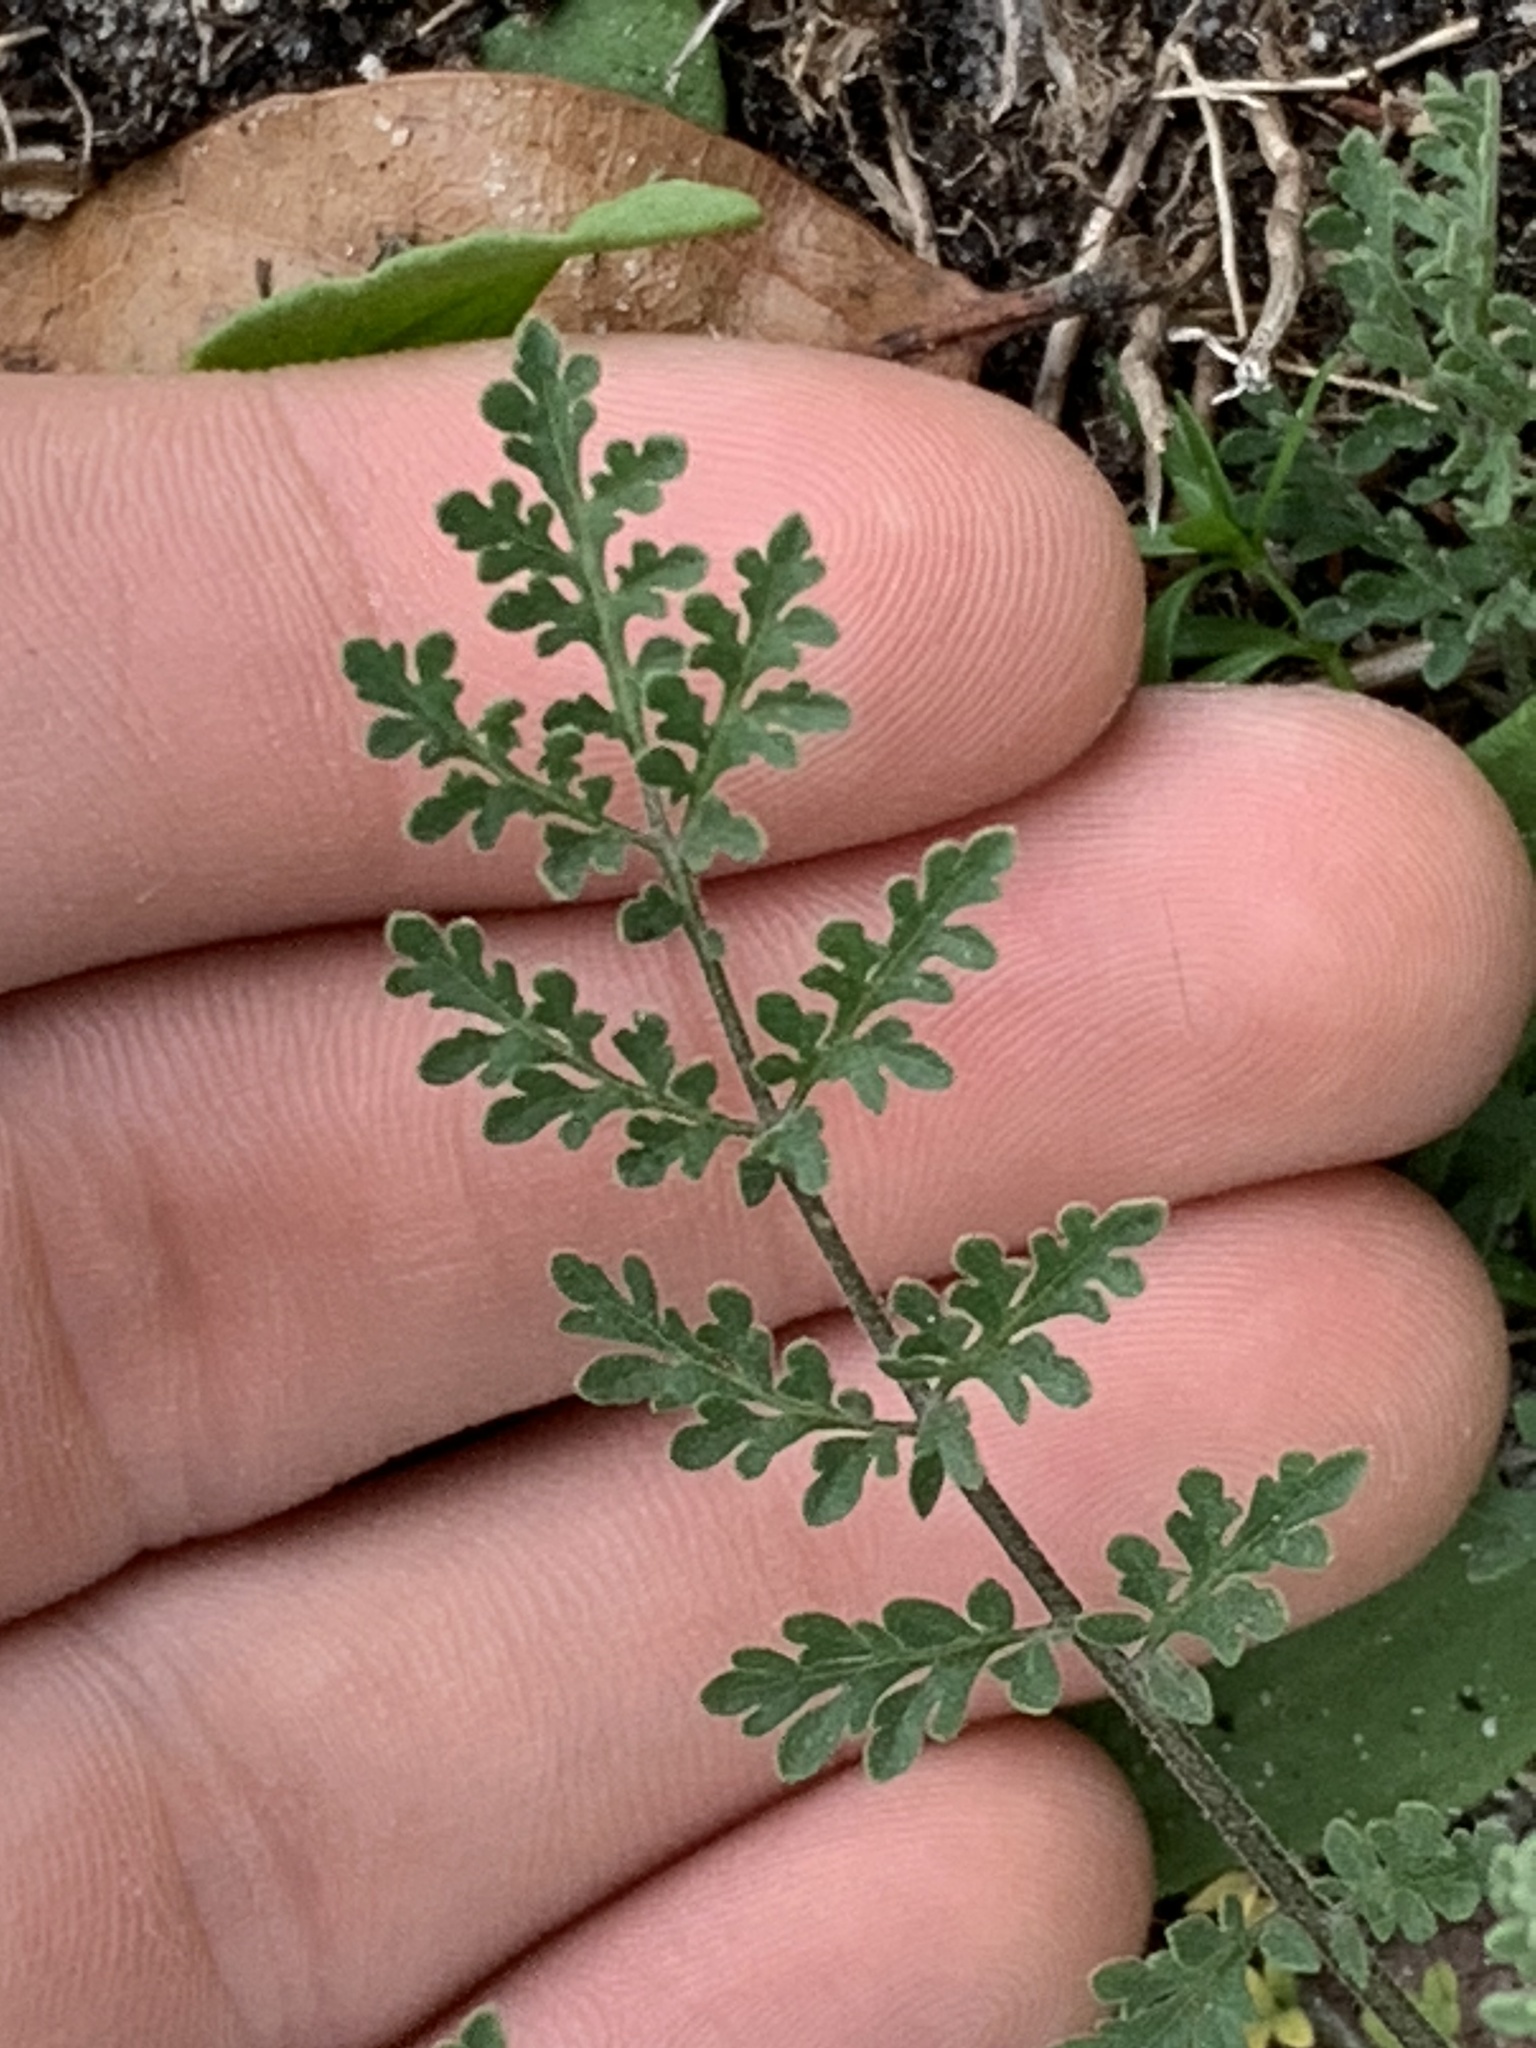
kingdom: Plantae
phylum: Tracheophyta
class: Magnoliopsida
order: Brassicales
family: Brassicaceae
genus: Descurainia
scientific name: Descurainia pinnata
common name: Western tansy mustard
